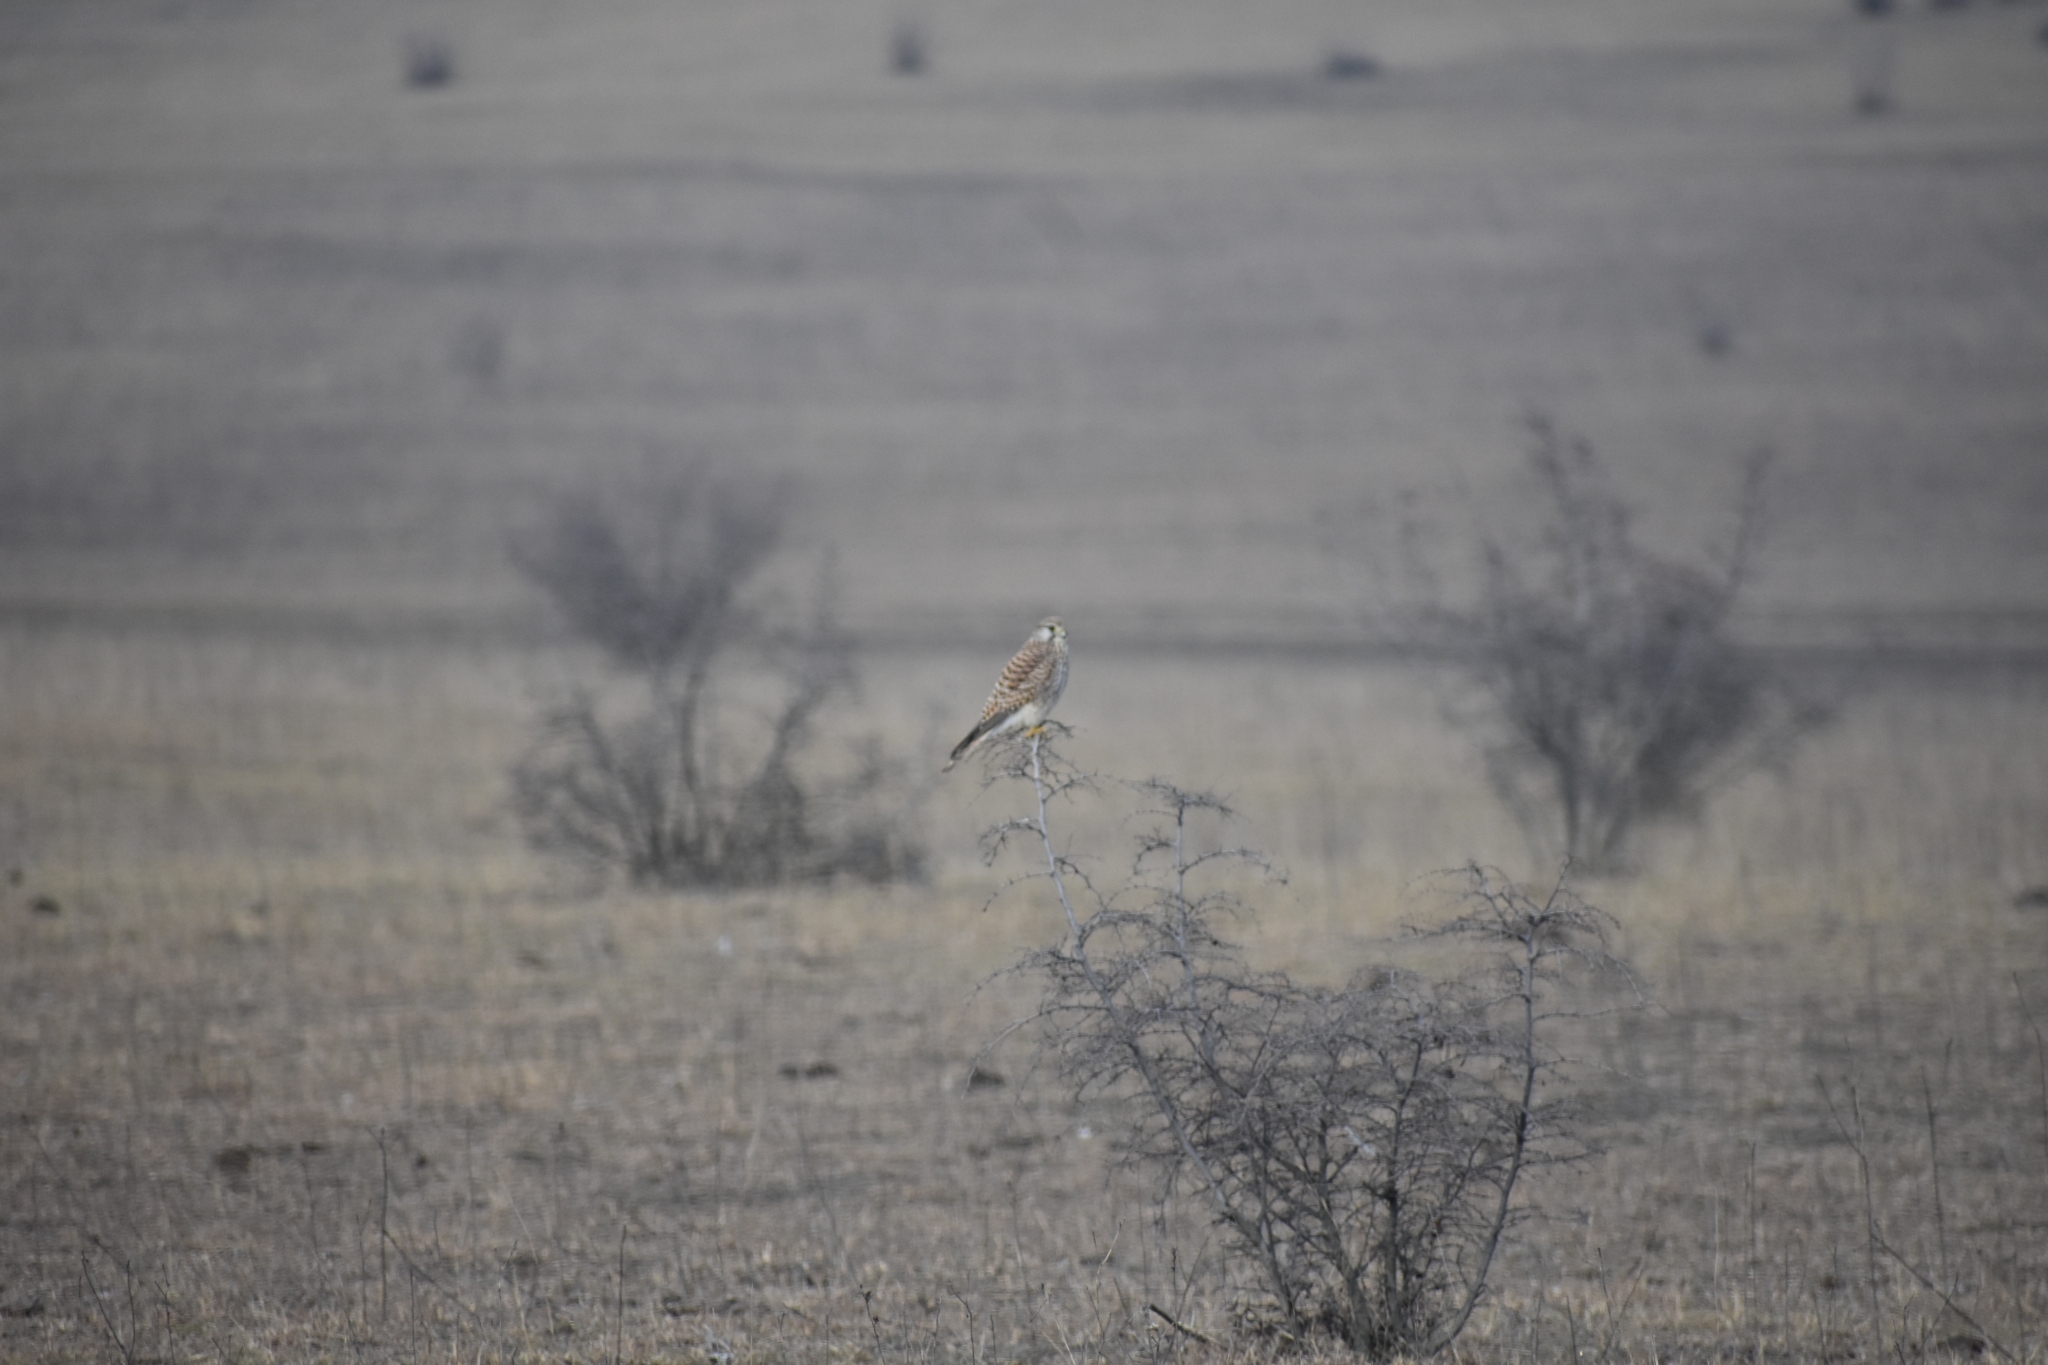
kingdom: Animalia
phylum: Chordata
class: Aves
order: Falconiformes
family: Falconidae
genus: Falco
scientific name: Falco tinnunculus
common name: Common kestrel
